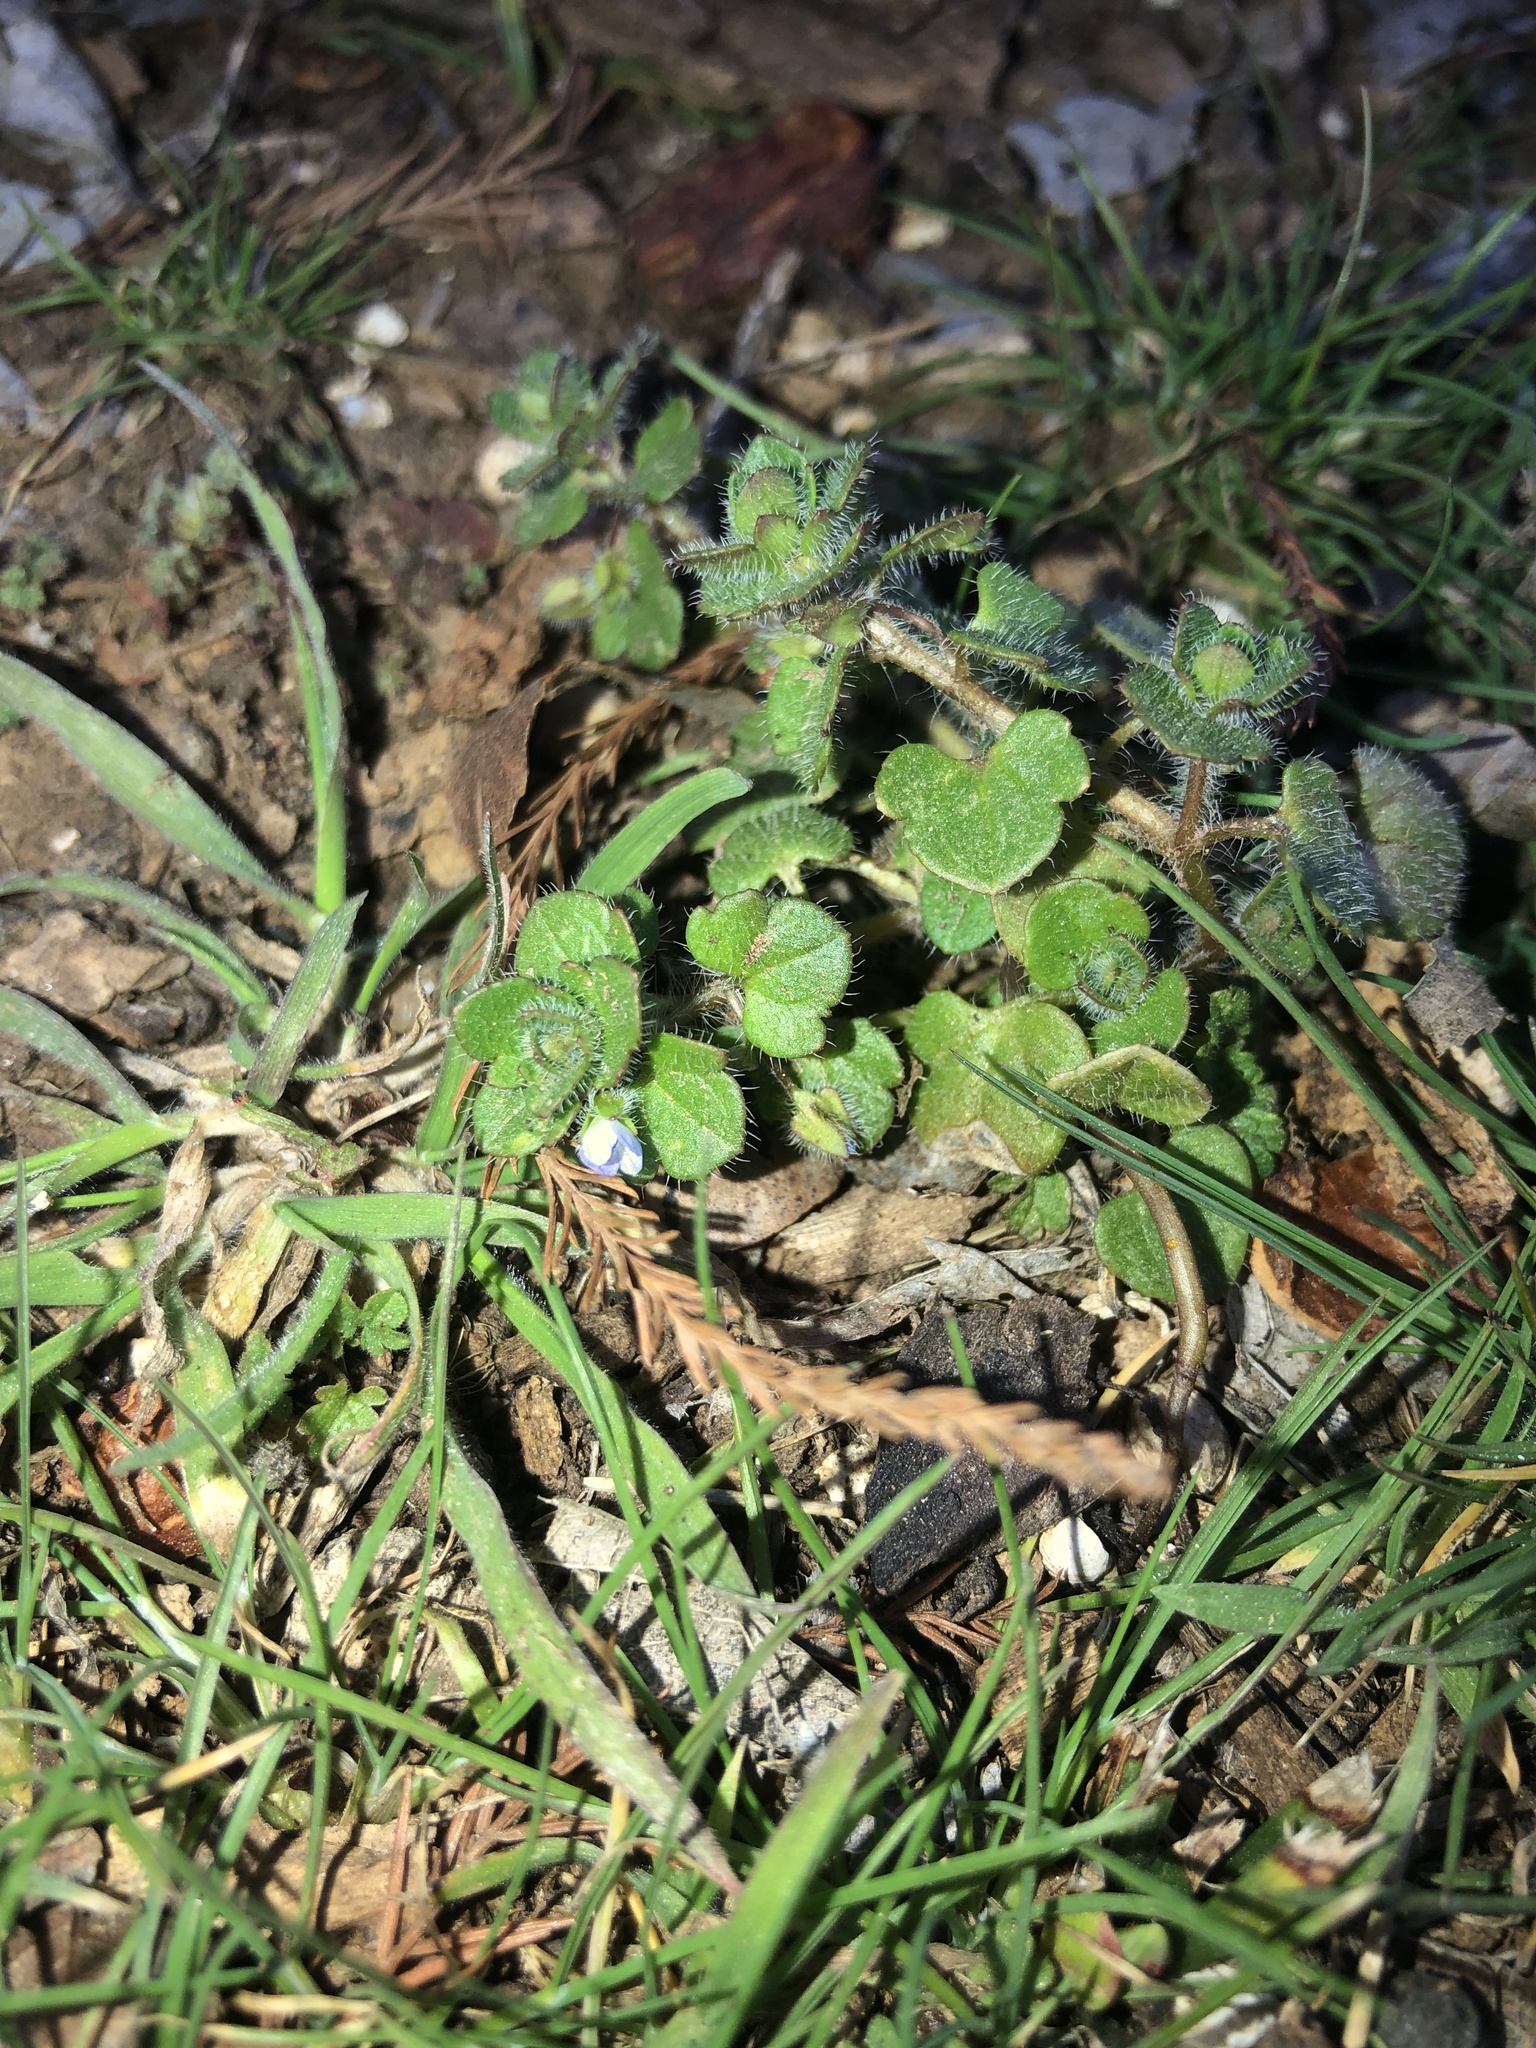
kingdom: Plantae
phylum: Tracheophyta
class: Magnoliopsida
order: Lamiales
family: Plantaginaceae
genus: Veronica
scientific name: Veronica hederifolia
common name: Ivy-leaved speedwell
